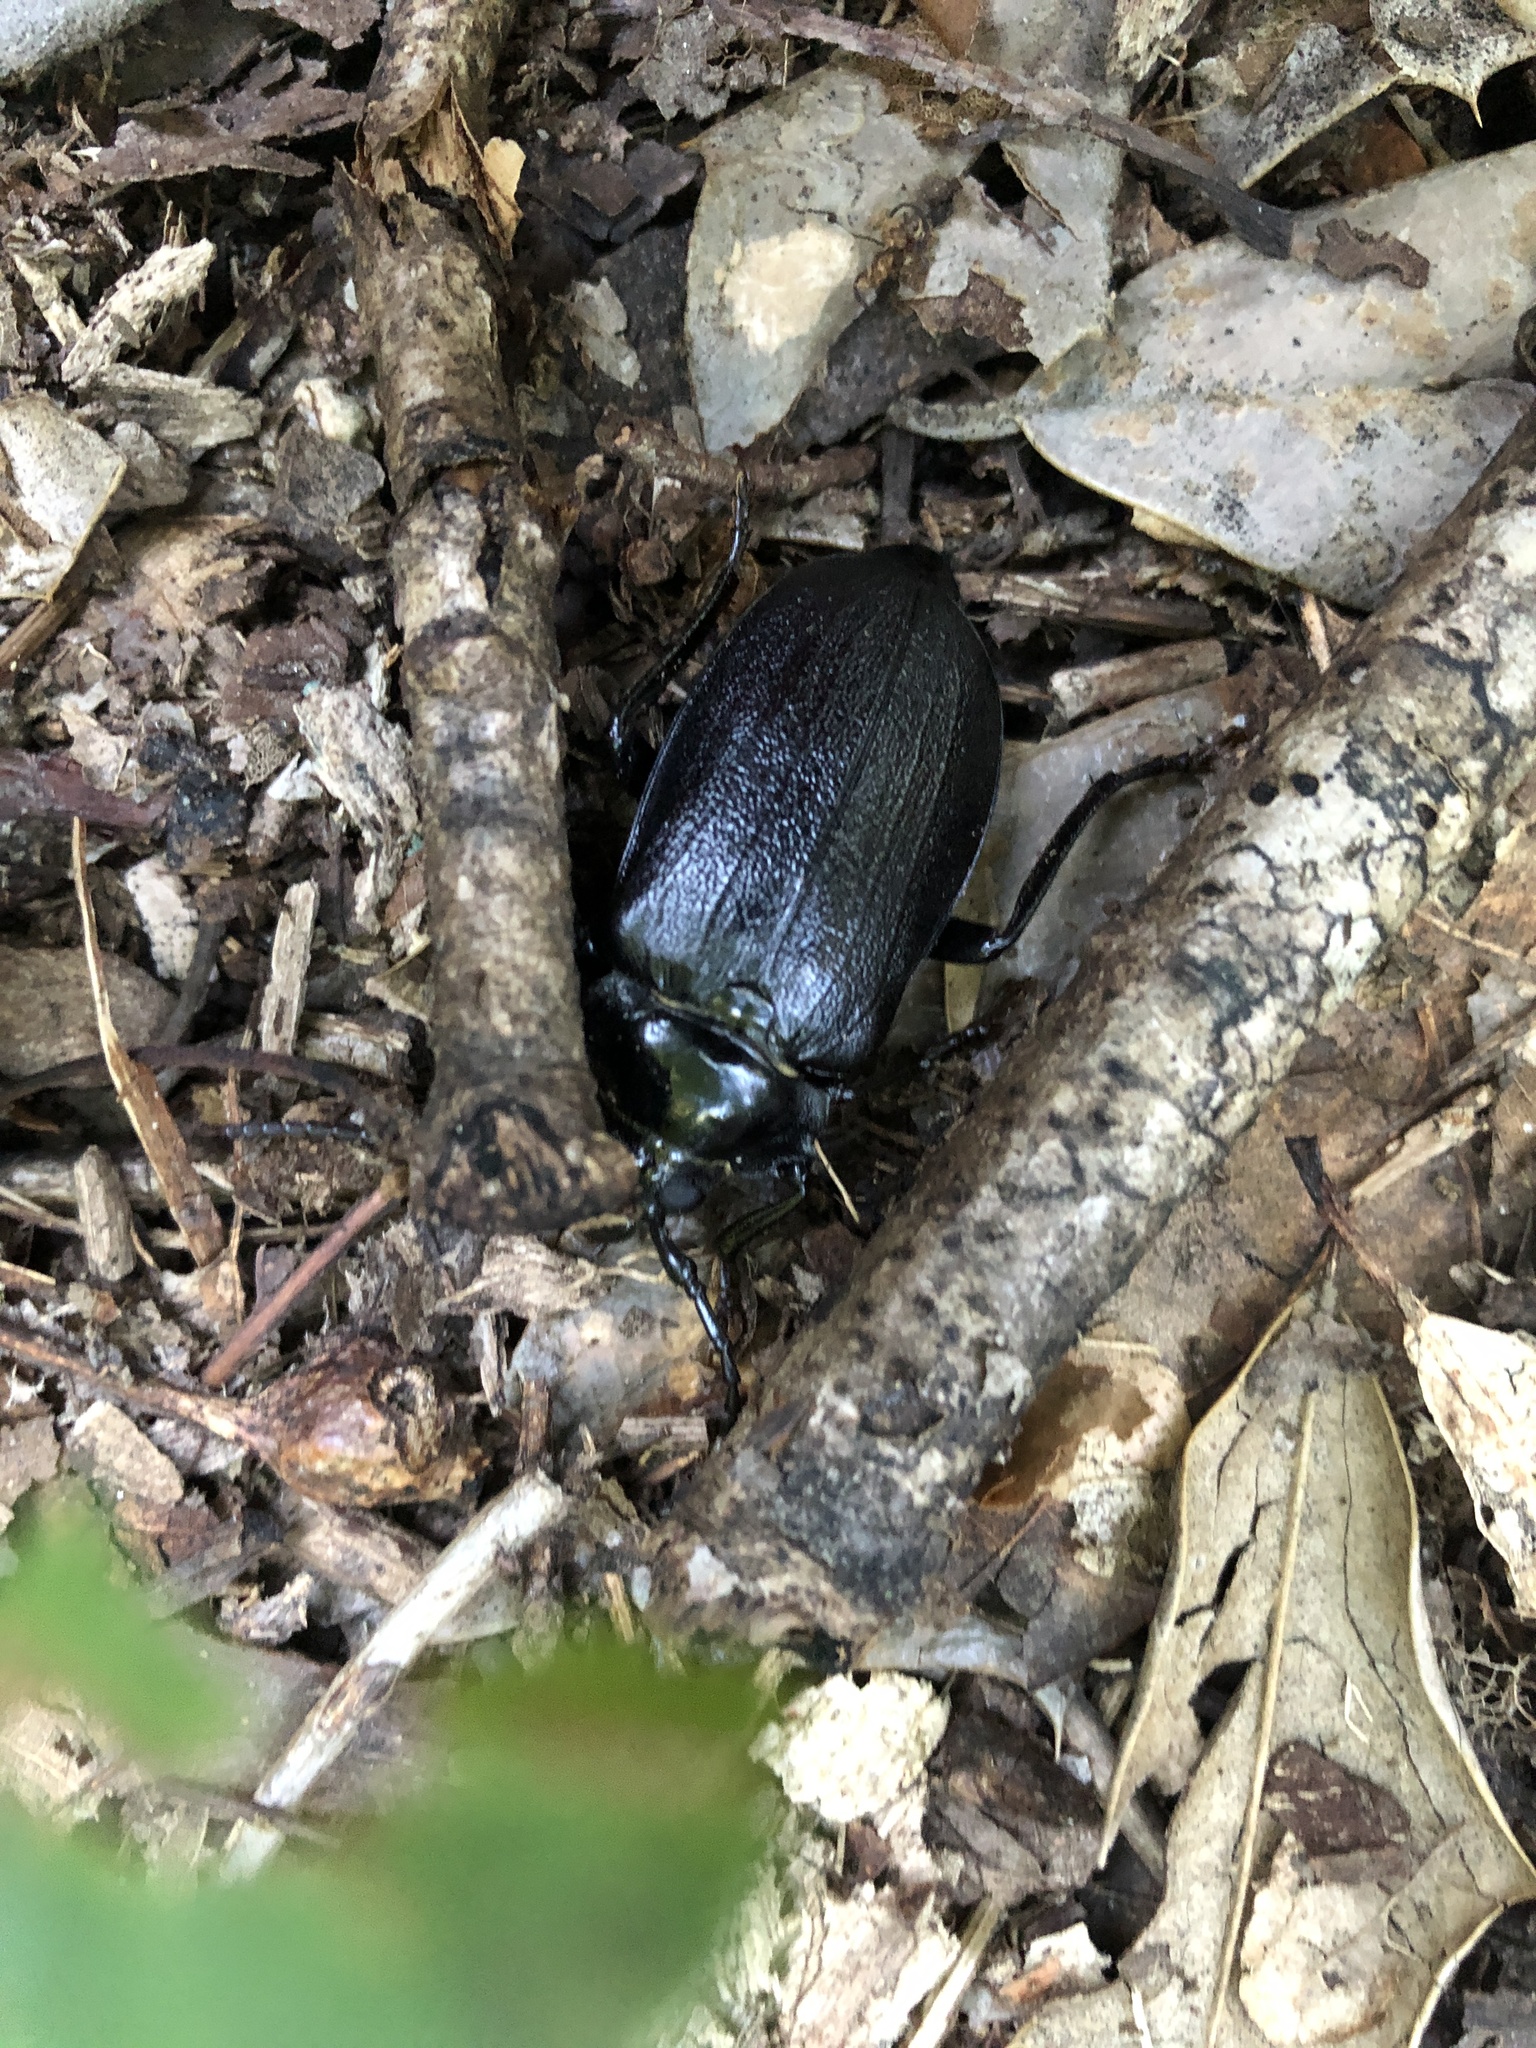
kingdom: Animalia
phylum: Arthropoda
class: Insecta
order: Coleoptera
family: Cerambycidae
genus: Prionus
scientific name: Prionus laticollis
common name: Broad necked prionus
